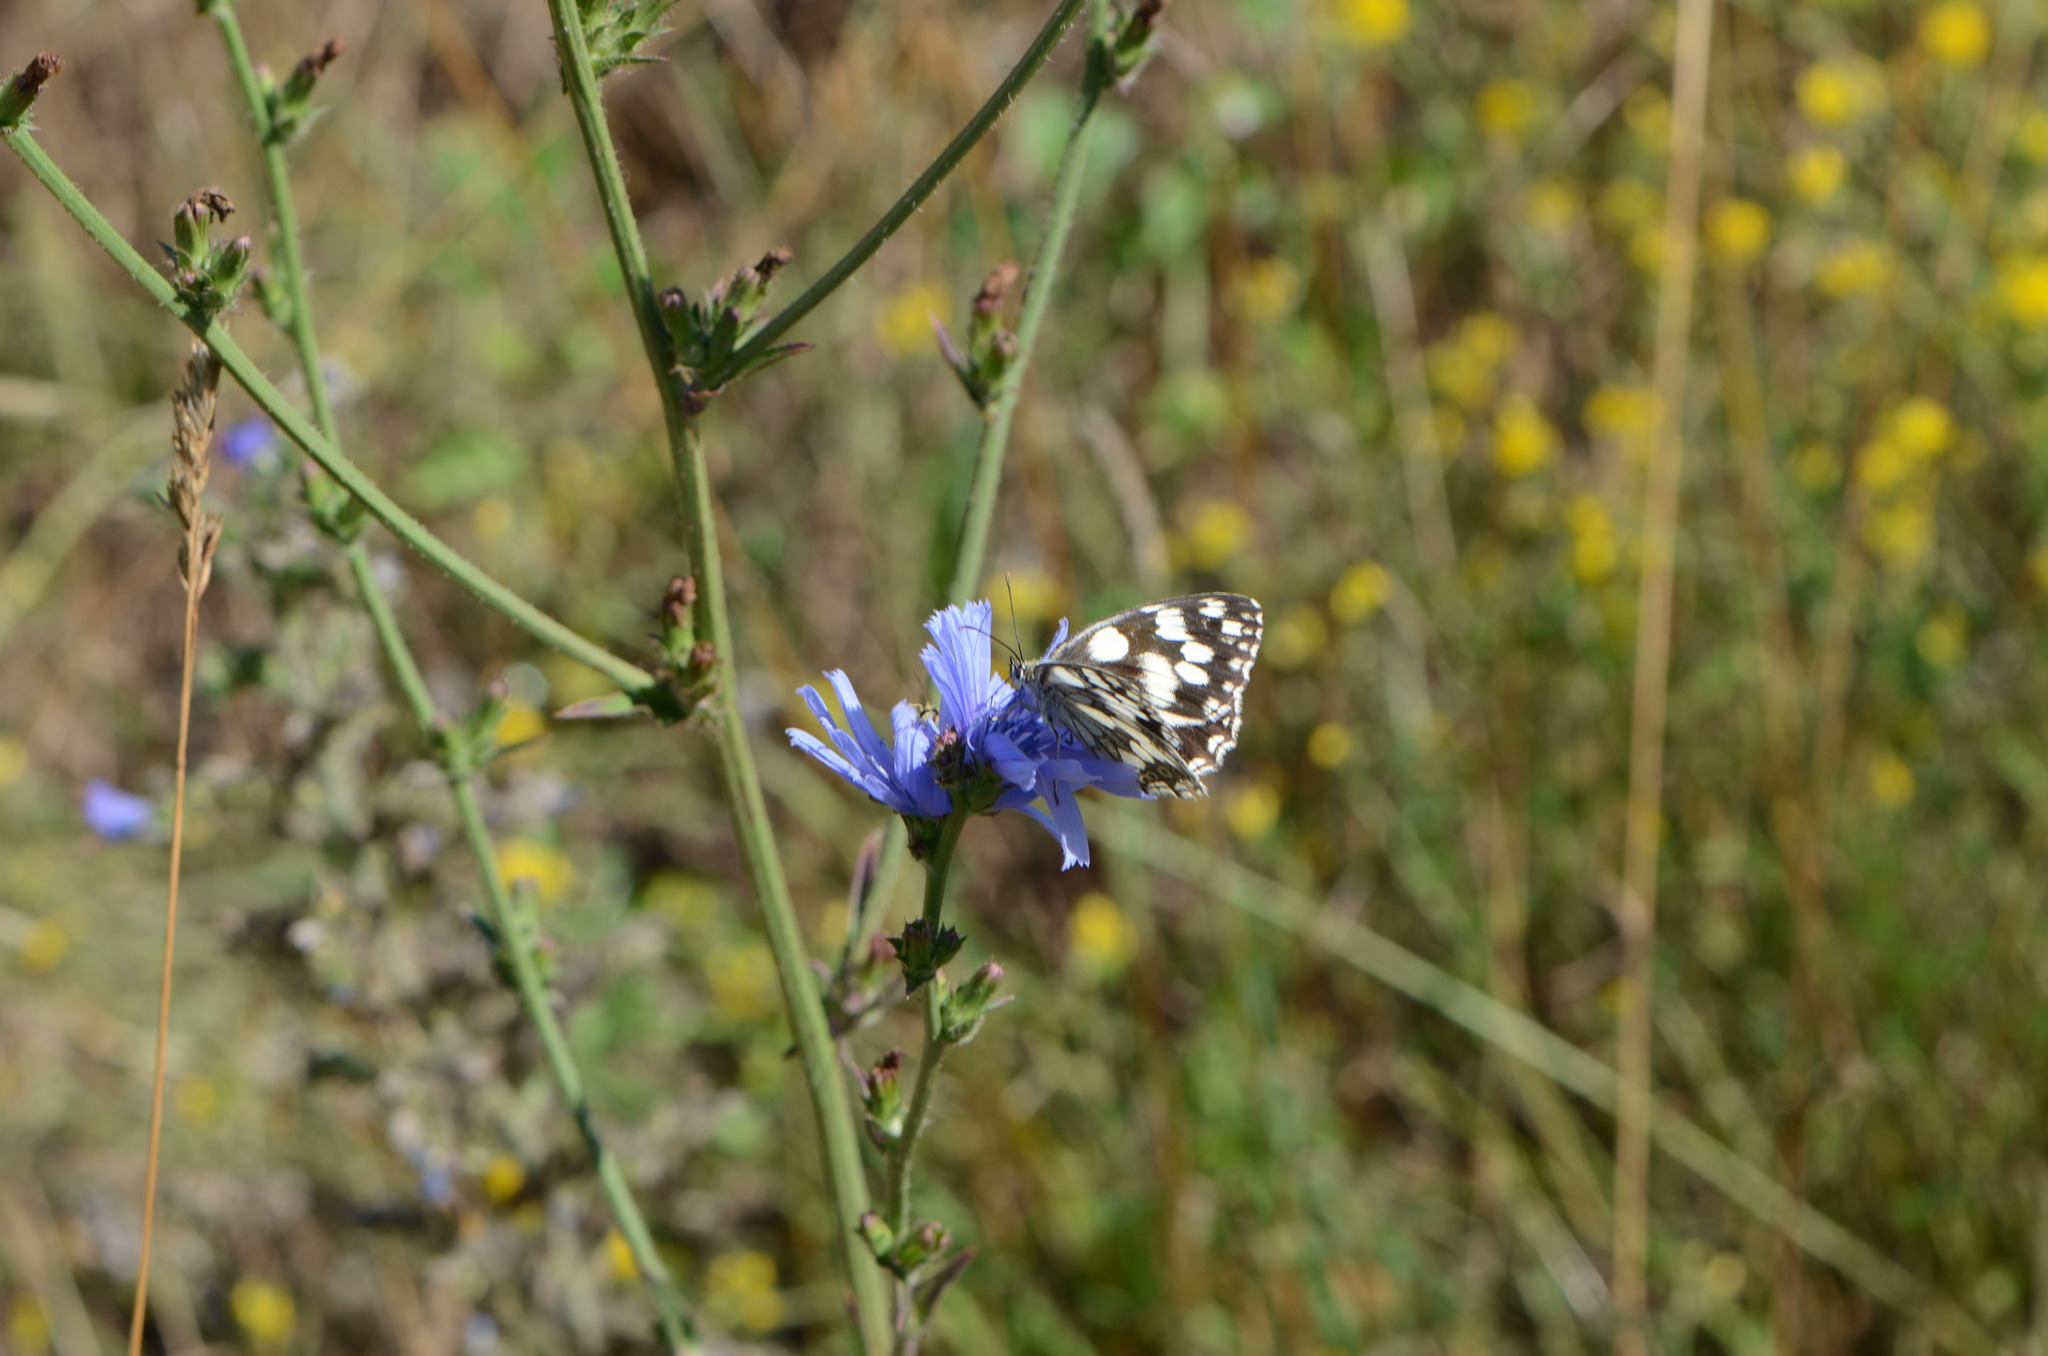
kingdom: Plantae
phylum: Tracheophyta
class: Magnoliopsida
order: Asterales
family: Asteraceae
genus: Cichorium
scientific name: Cichorium intybus
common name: Chicory
